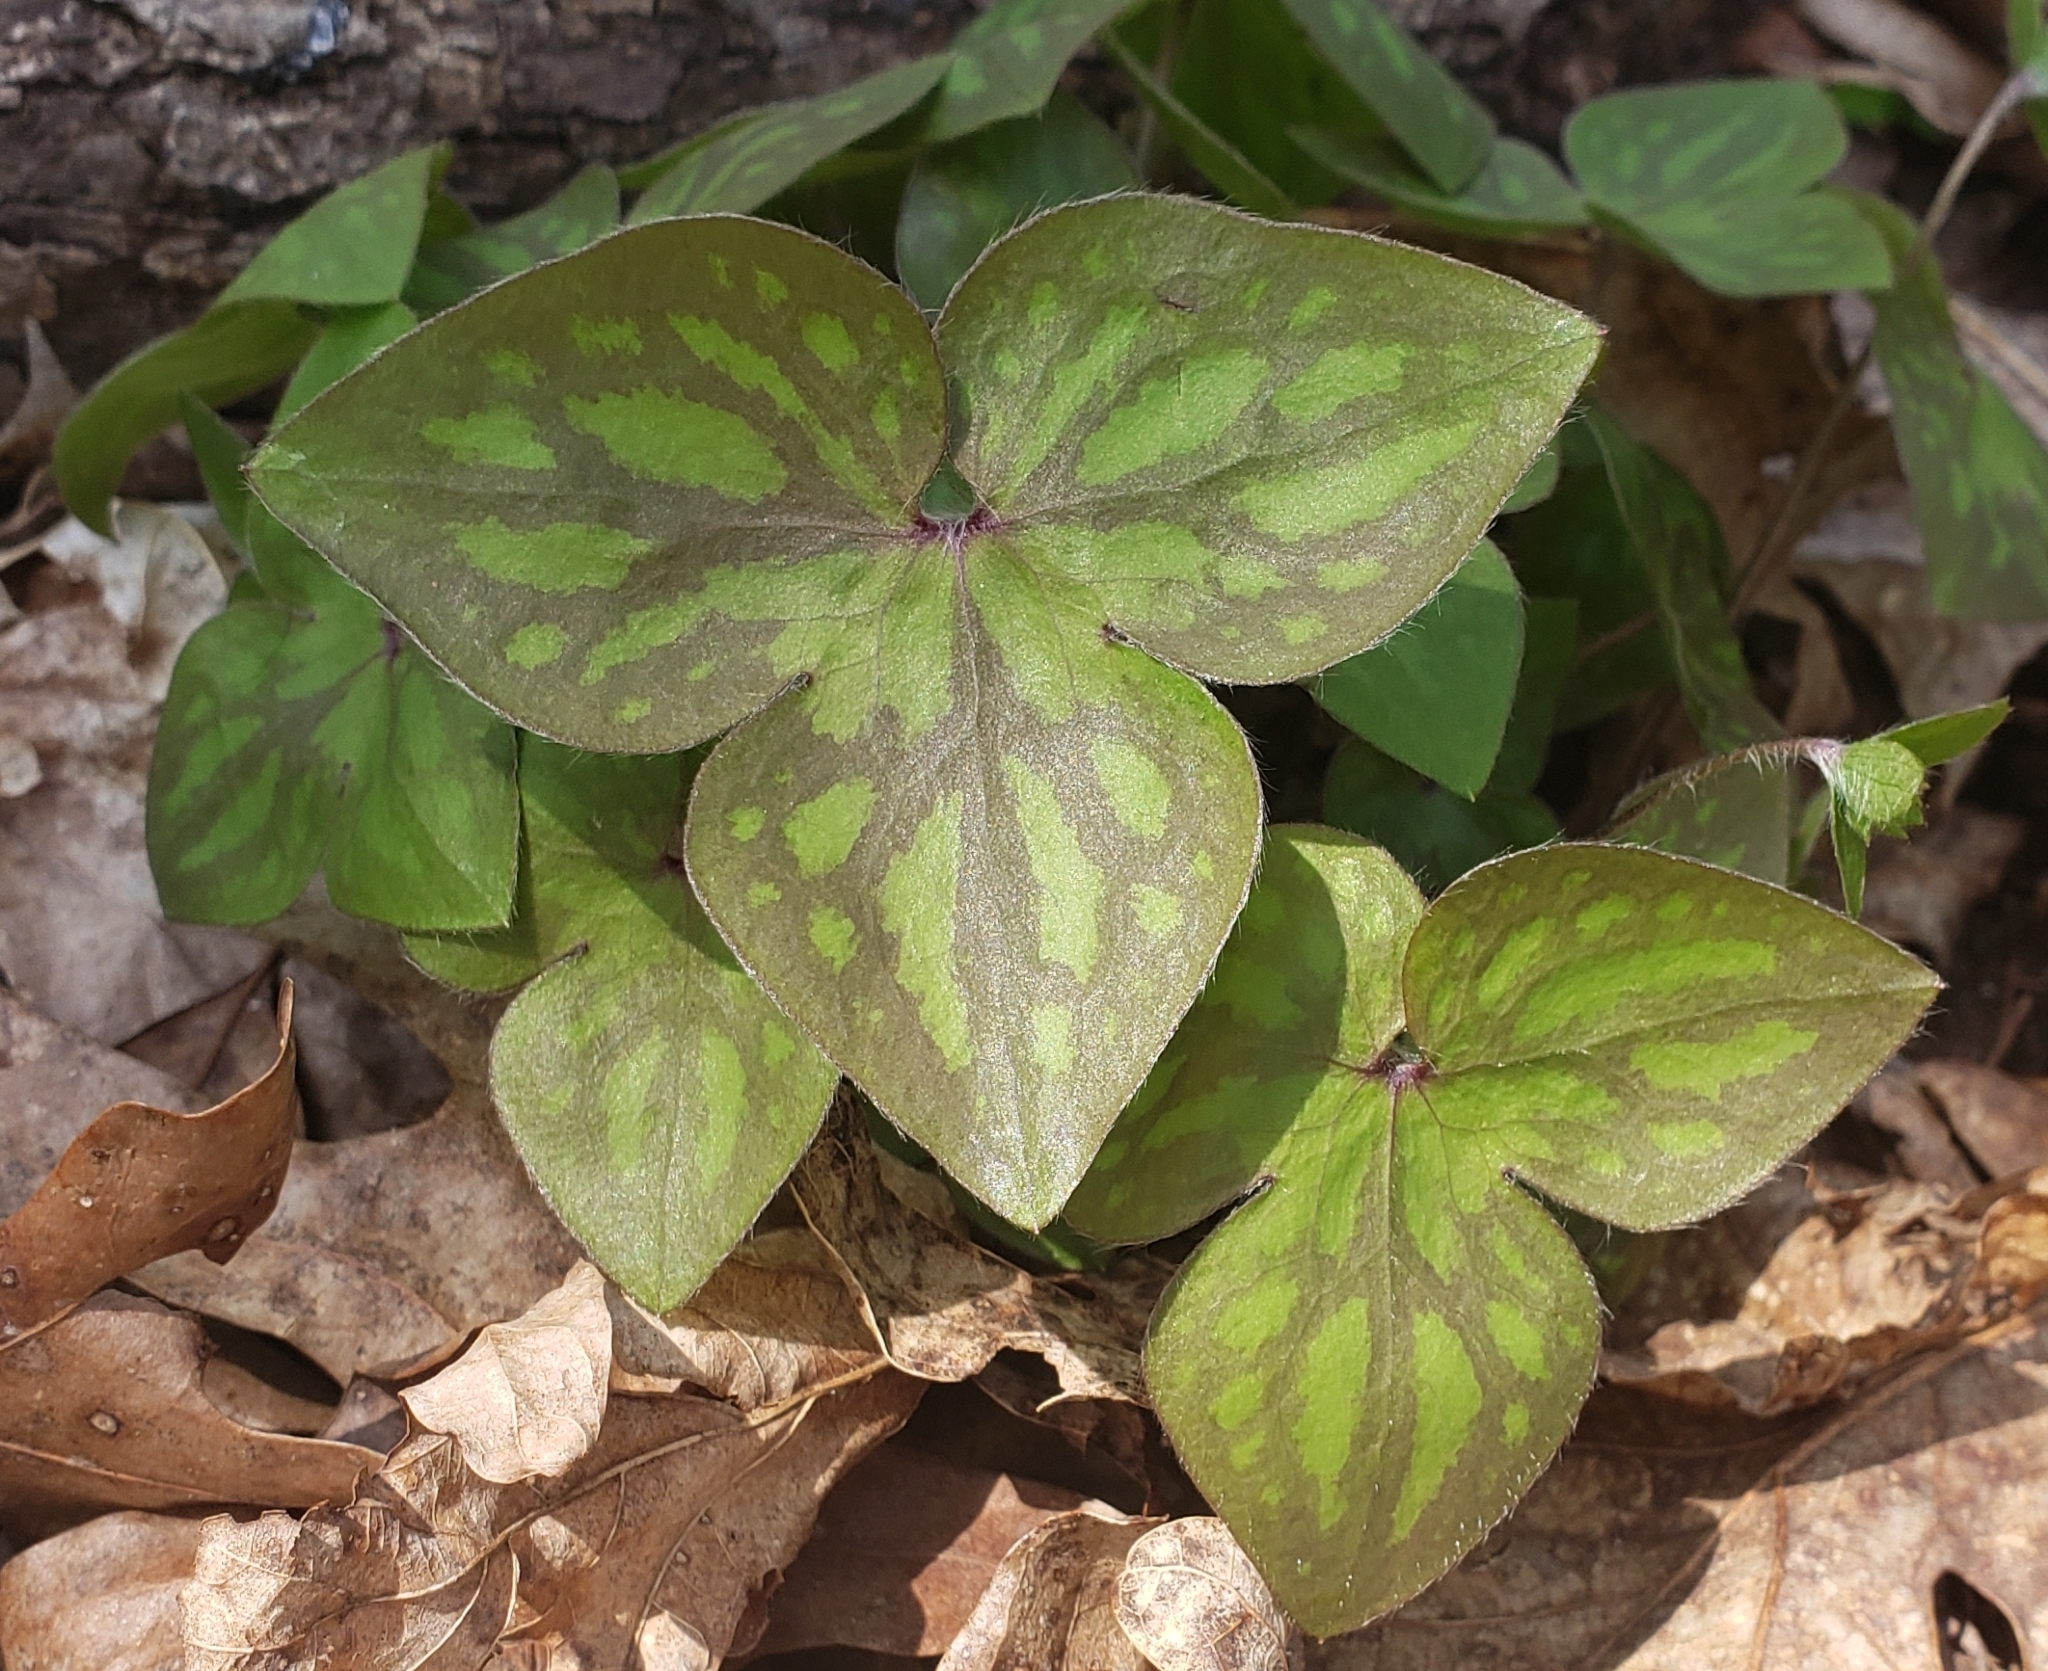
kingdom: Plantae
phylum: Tracheophyta
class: Magnoliopsida
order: Ranunculales
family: Ranunculaceae
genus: Hepatica
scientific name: Hepatica acutiloba
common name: Sharp-lobed hepatica
